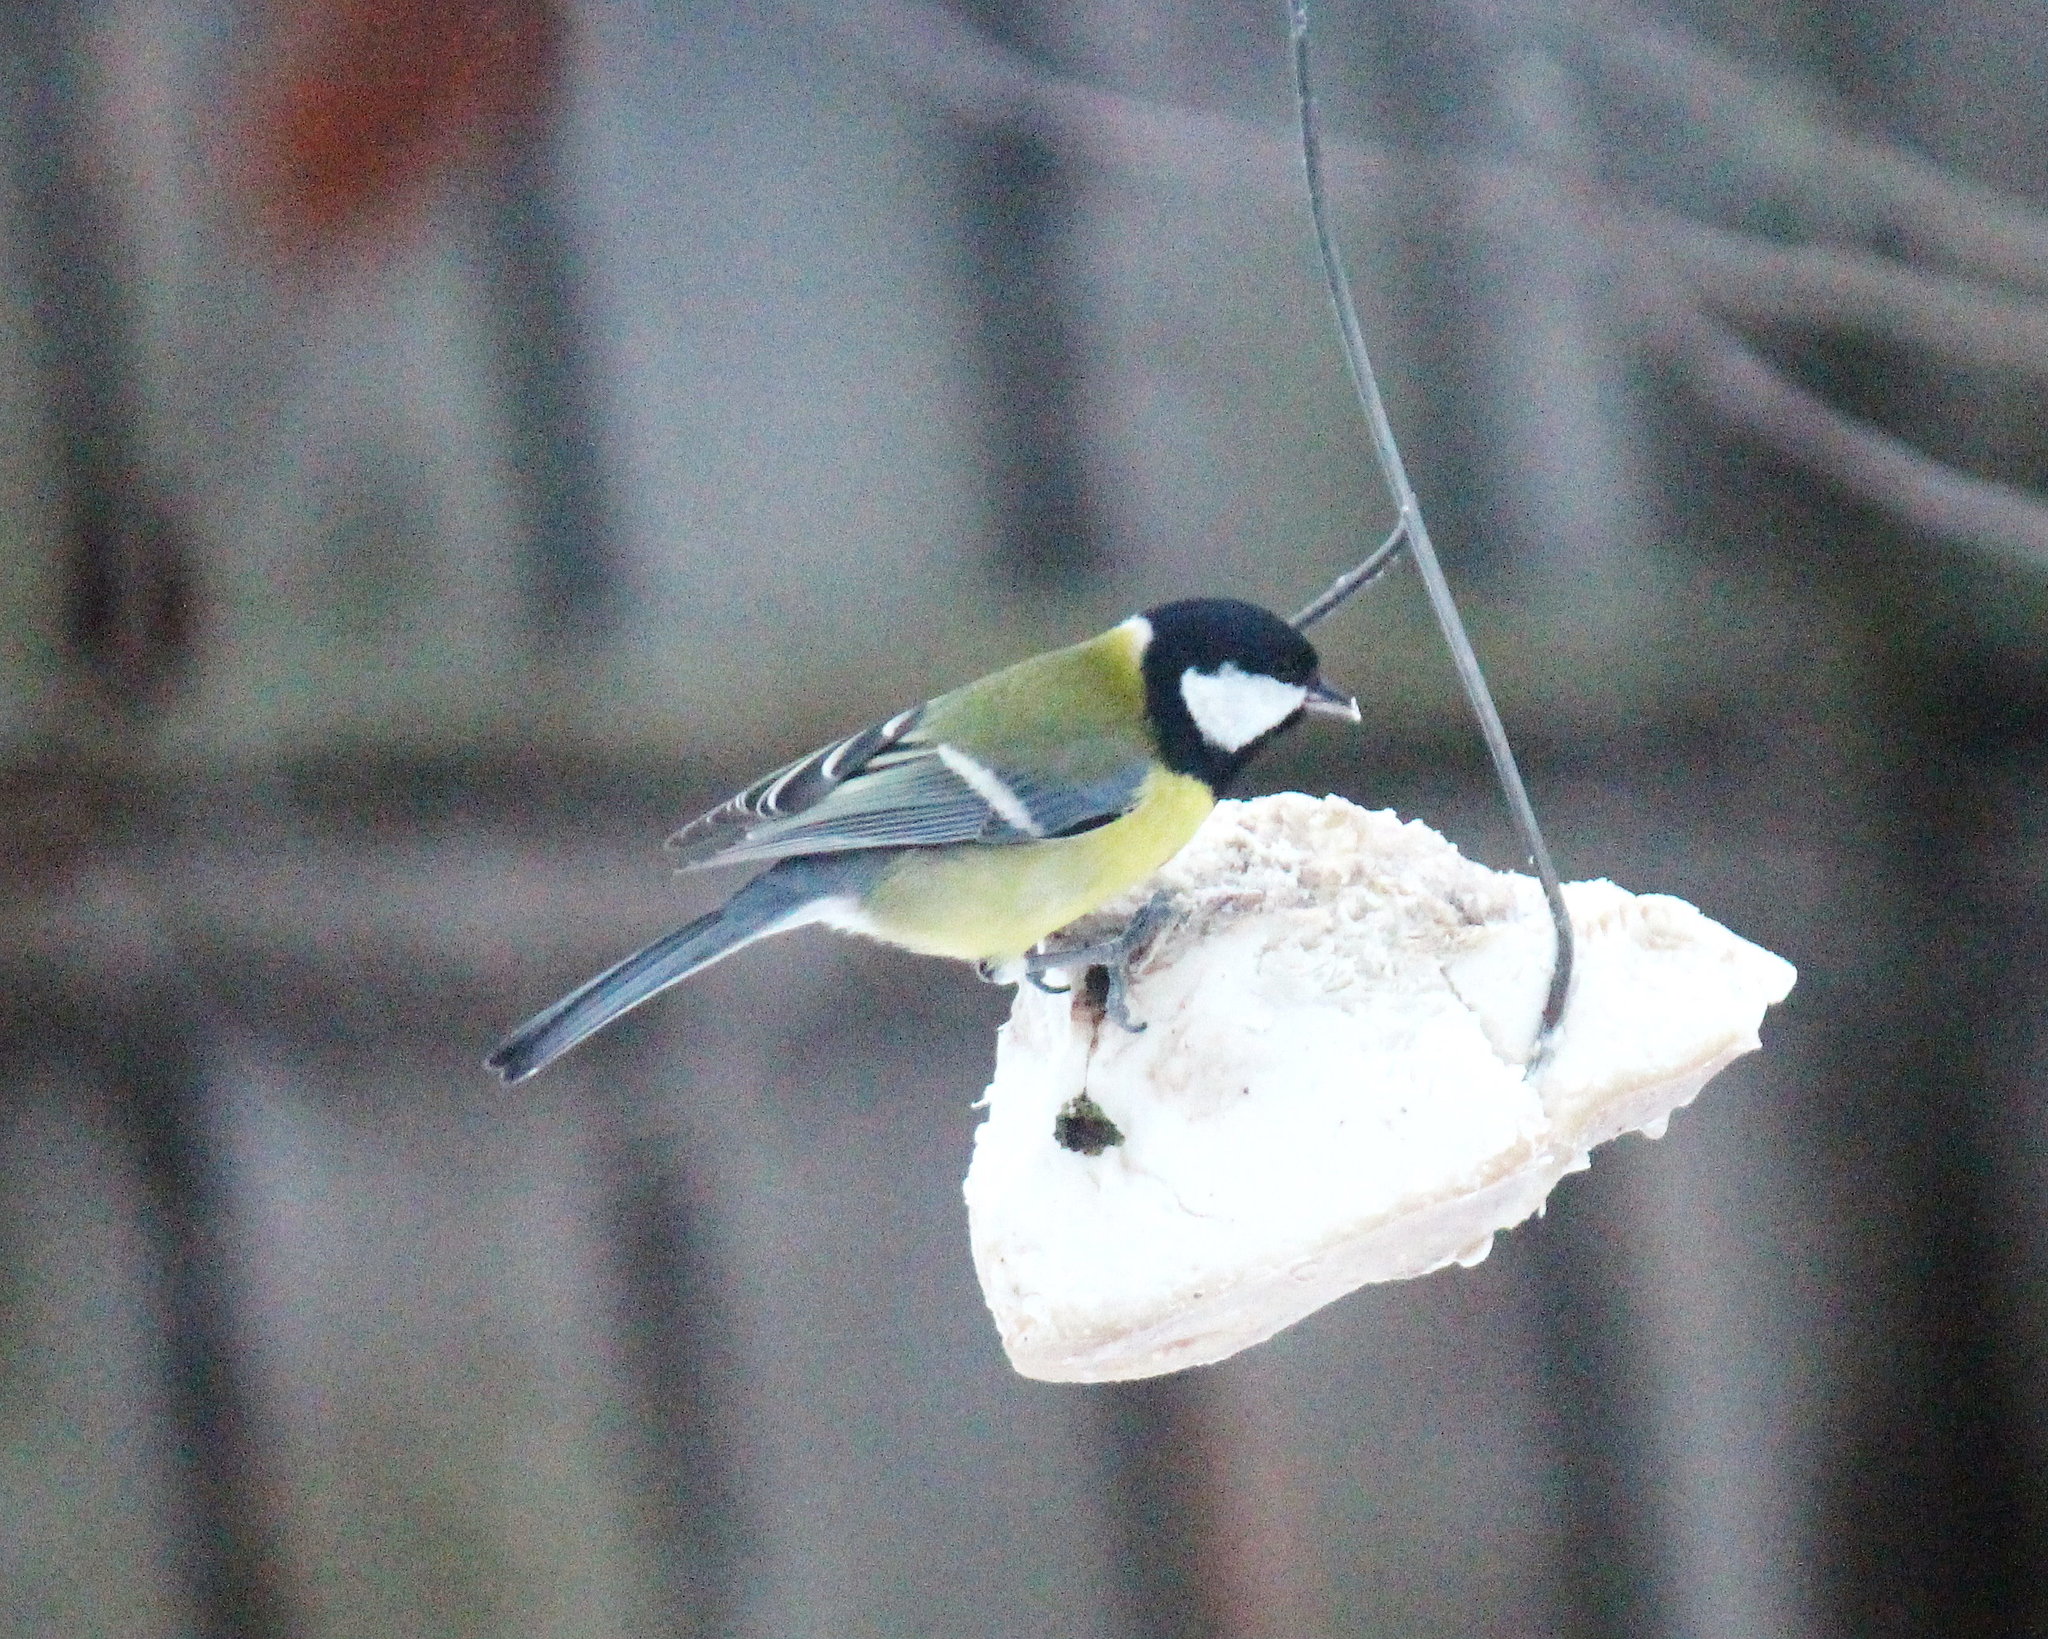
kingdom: Animalia
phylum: Chordata
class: Aves
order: Passeriformes
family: Paridae
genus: Parus
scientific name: Parus major
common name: Great tit
